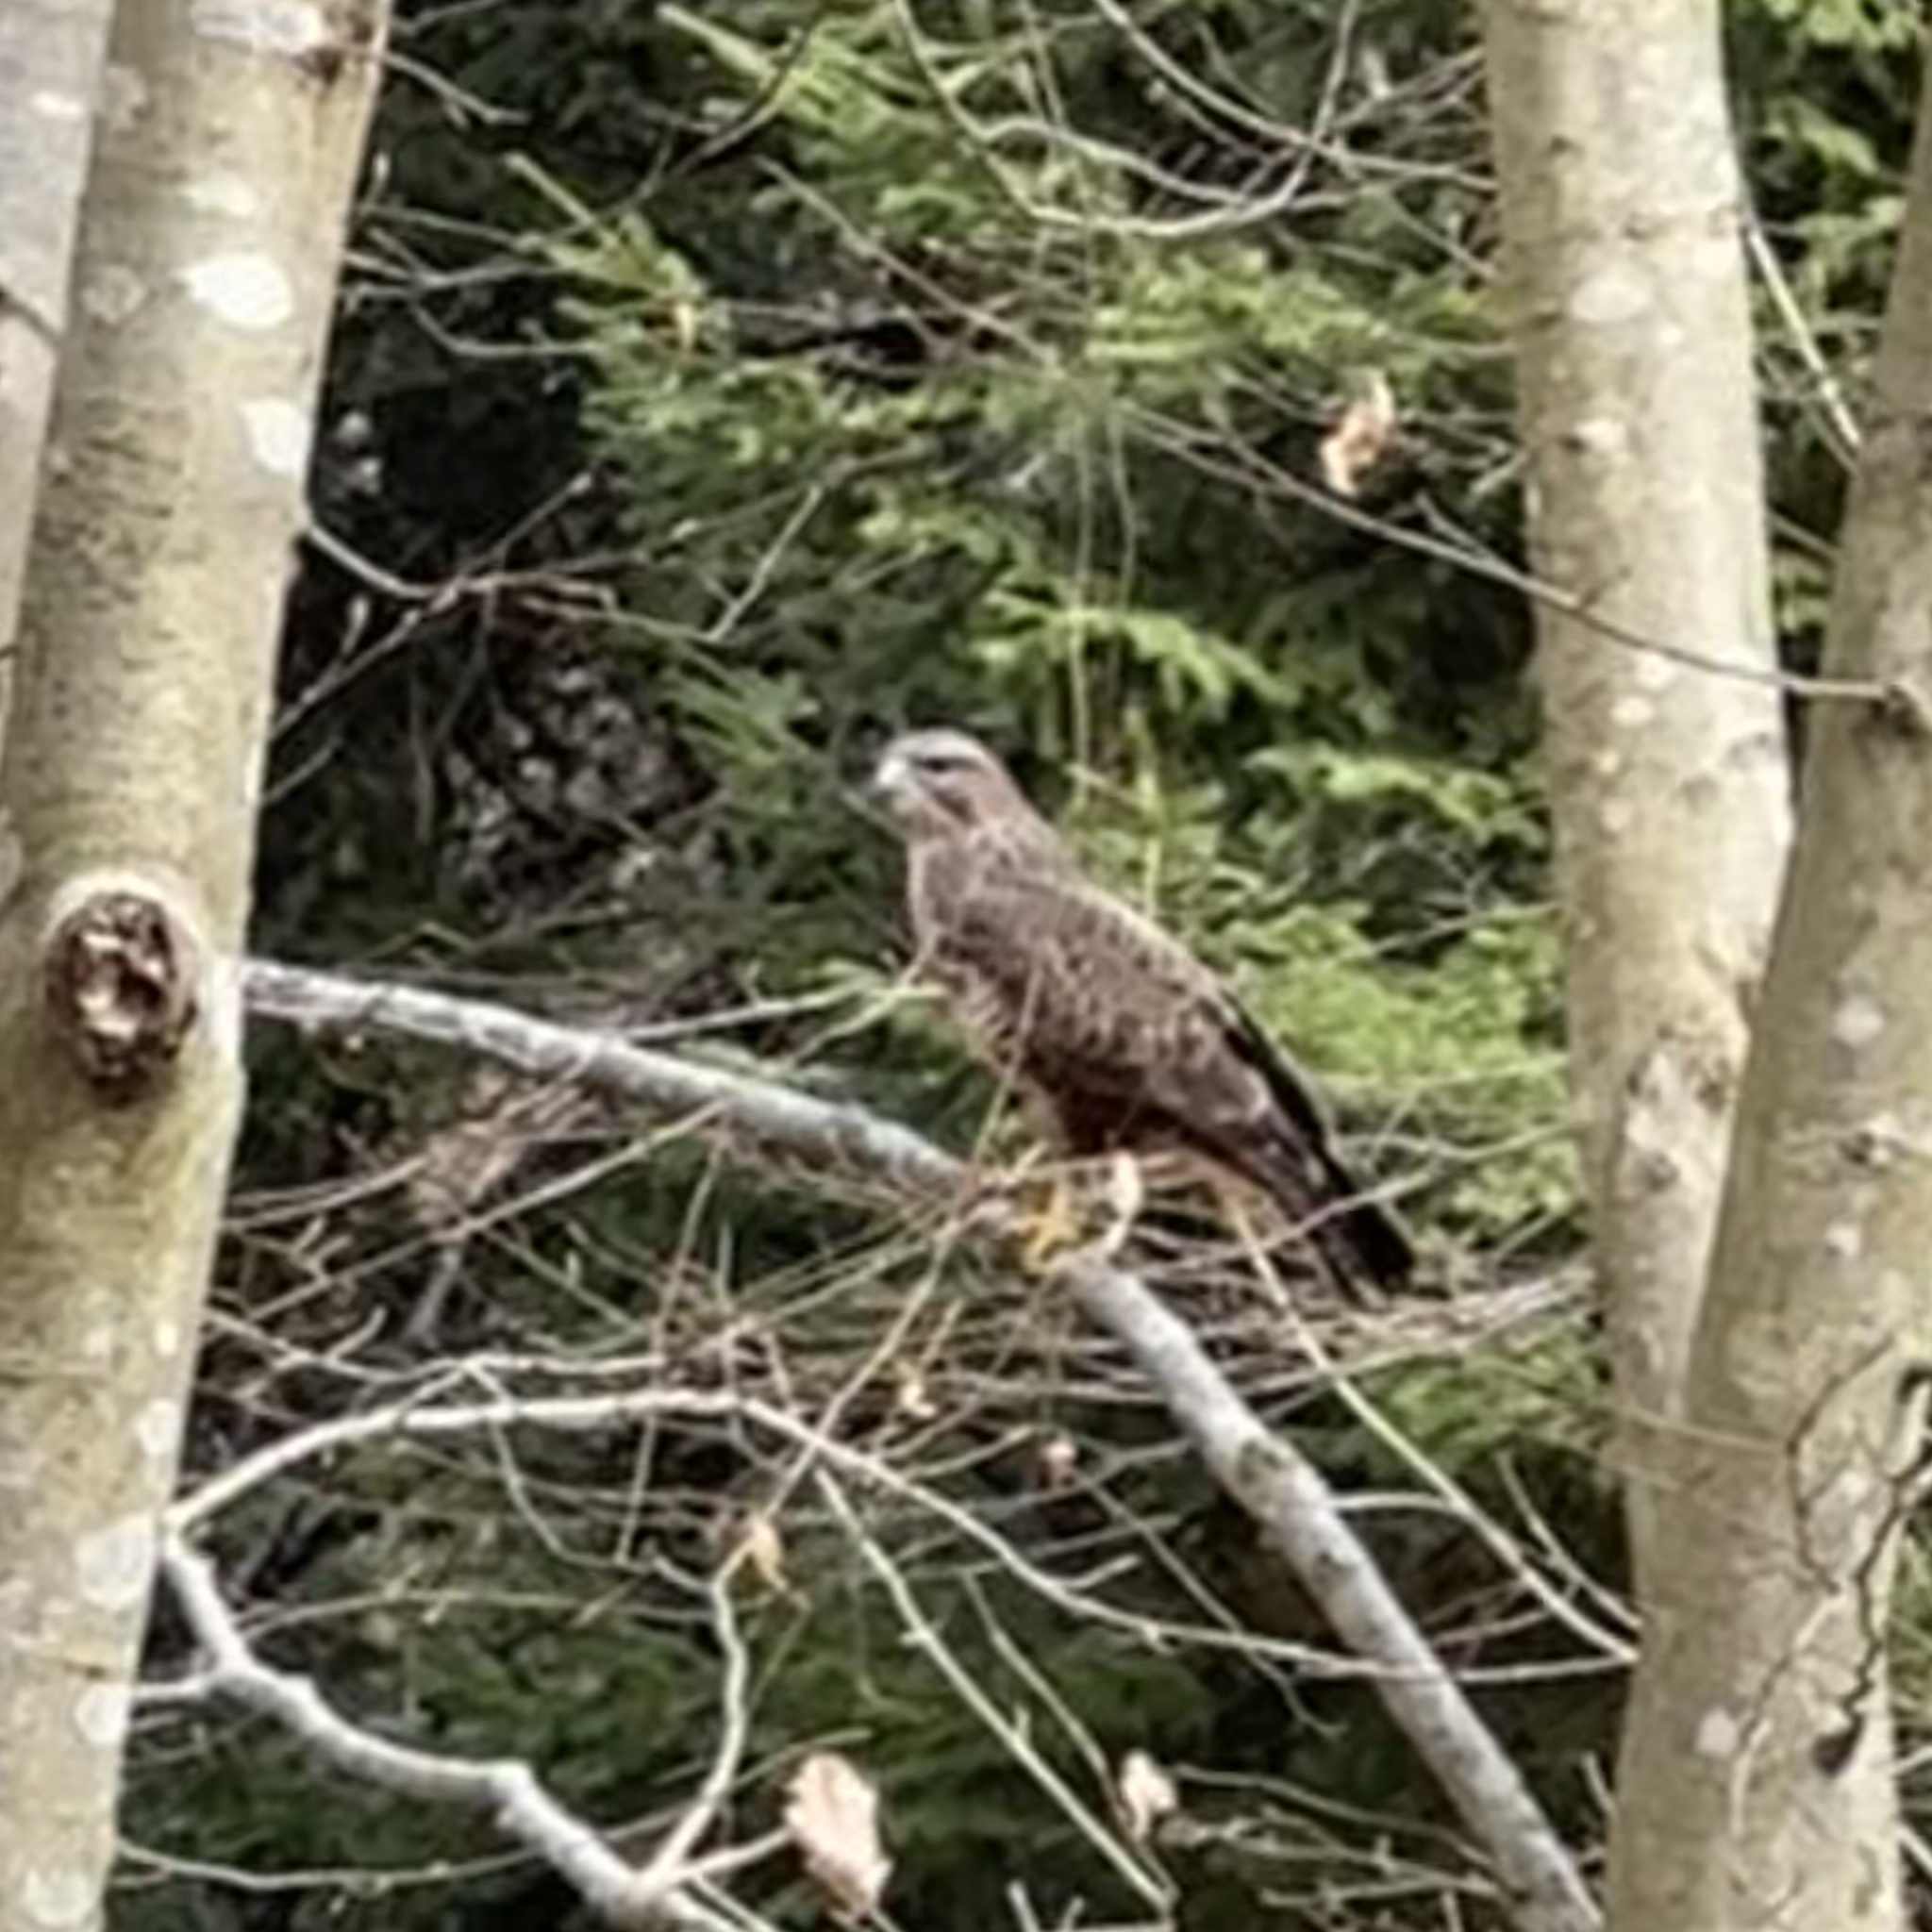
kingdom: Animalia
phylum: Chordata
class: Aves
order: Accipitriformes
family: Accipitridae
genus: Buteo
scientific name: Buteo buteo
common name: Common buzzard
